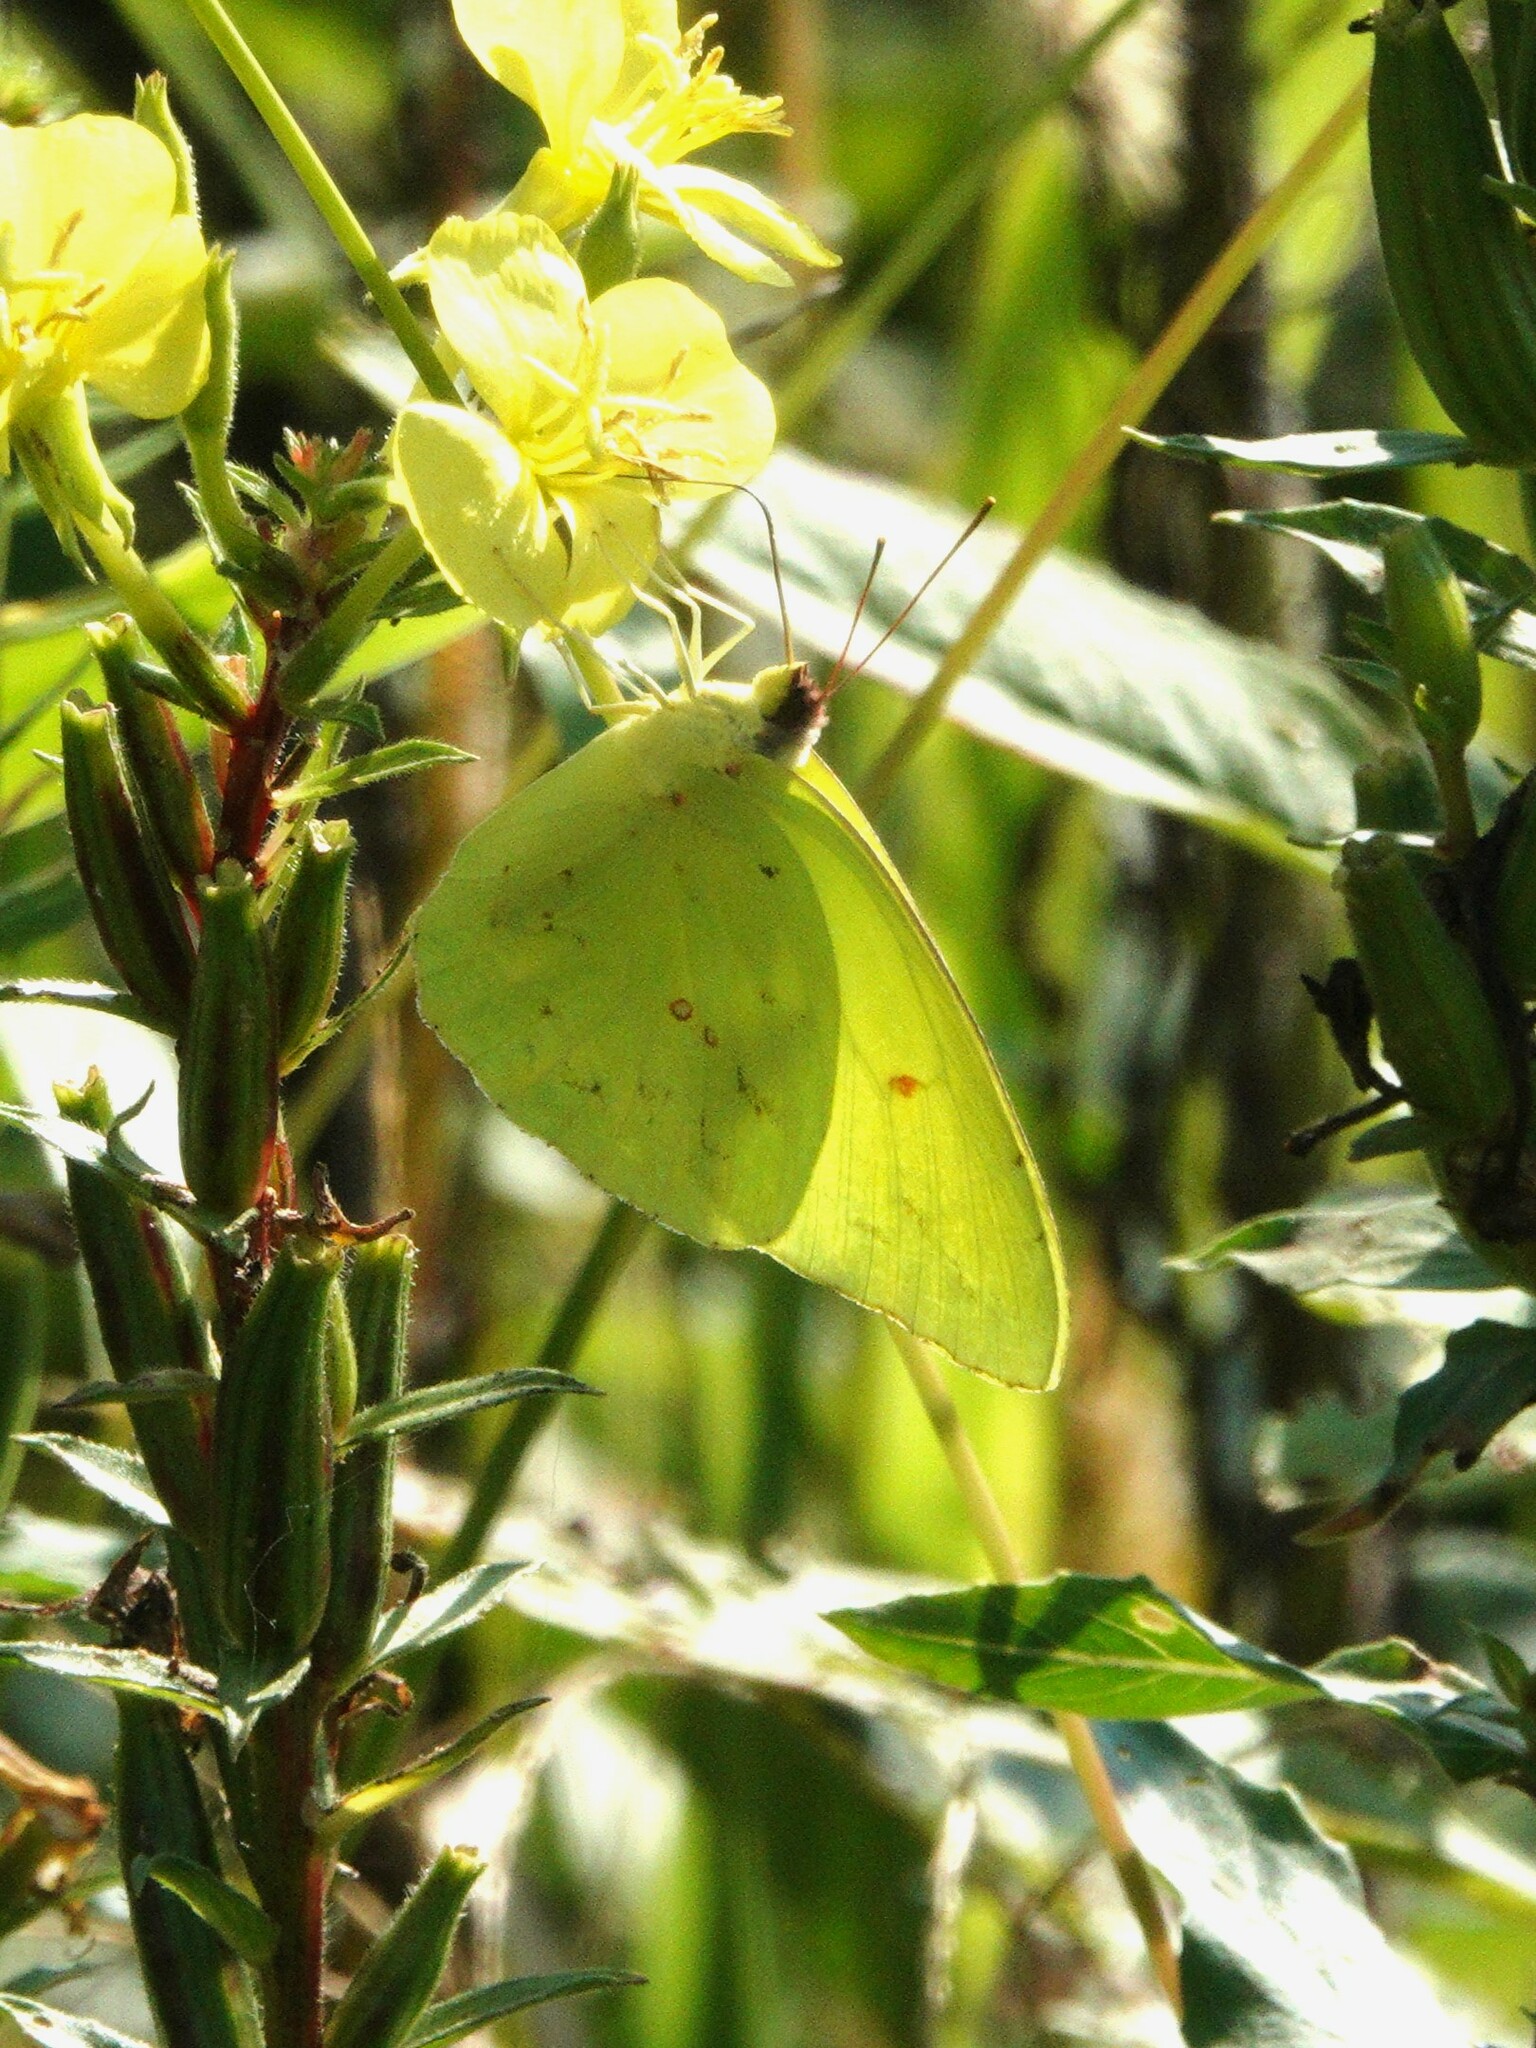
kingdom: Animalia
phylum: Arthropoda
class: Insecta
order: Lepidoptera
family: Pieridae
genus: Phoebis
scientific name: Phoebis sennae
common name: Cloudless sulphur
